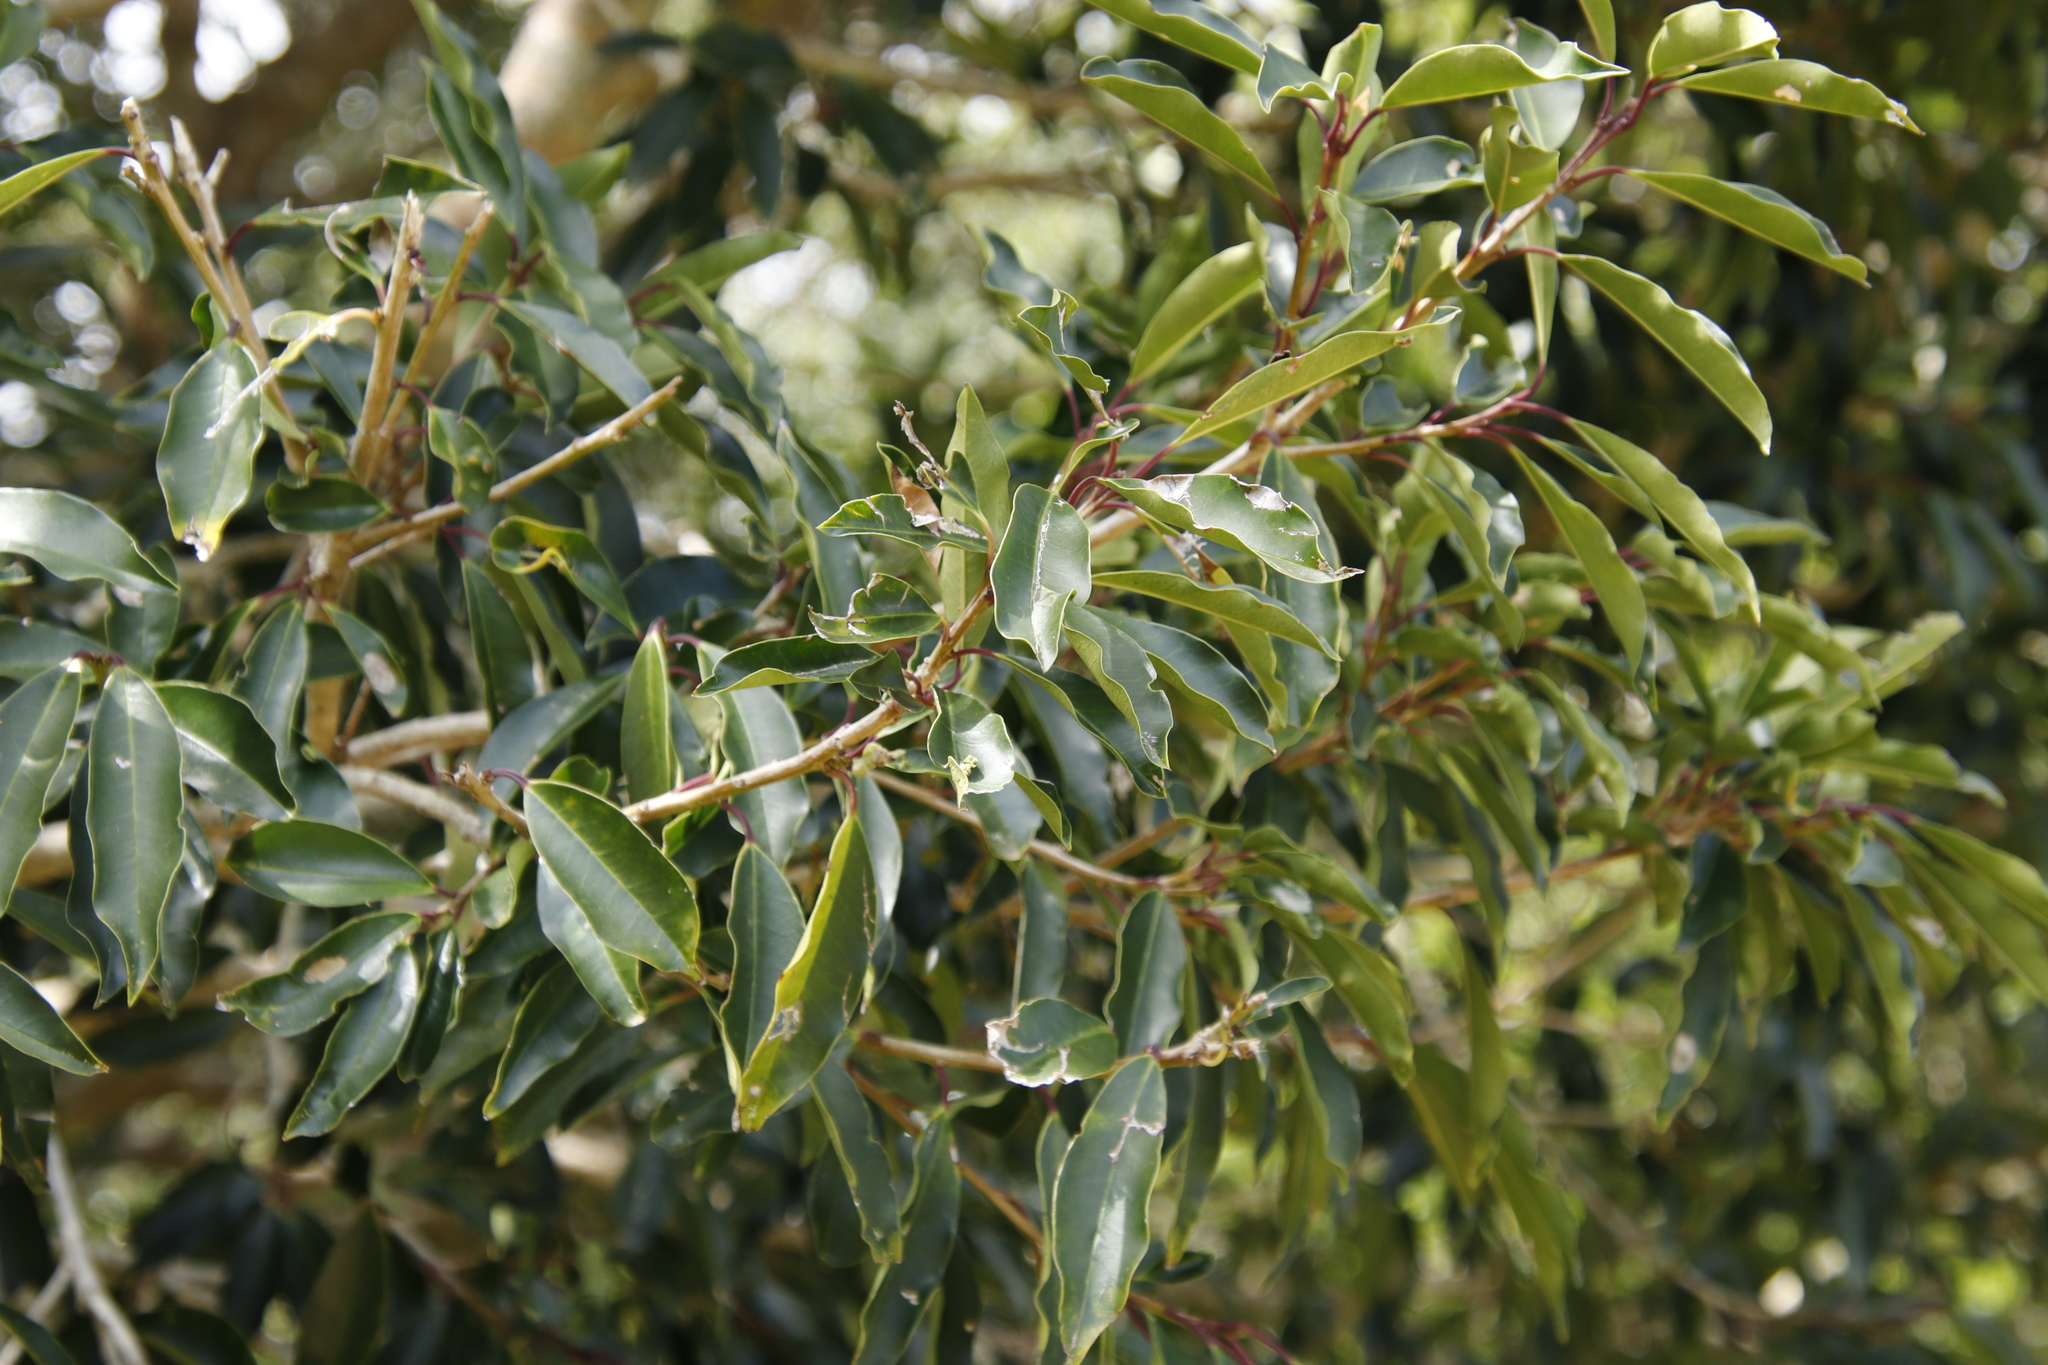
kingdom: Plantae
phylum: Tracheophyta
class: Magnoliopsida
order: Aquifoliales
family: Aquifoliaceae
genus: Ilex
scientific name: Ilex mitis
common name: African holly
